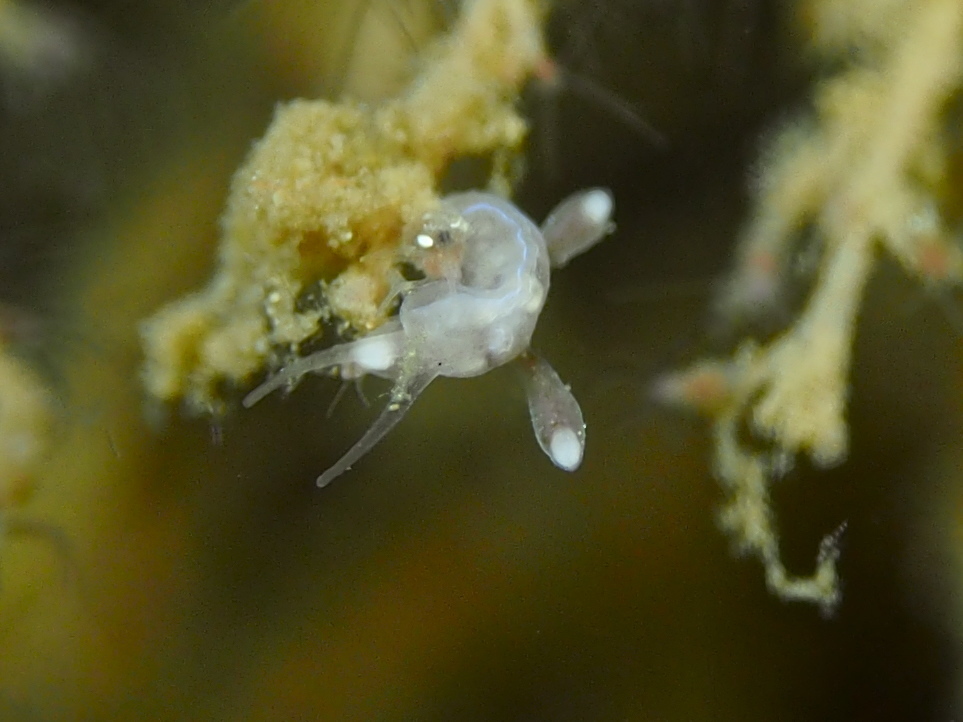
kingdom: Animalia
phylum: Mollusca
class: Gastropoda
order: Nudibranchia
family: Tergipedidae
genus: Tergipes
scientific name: Tergipes tergipes
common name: Johnston's balloon eolis
